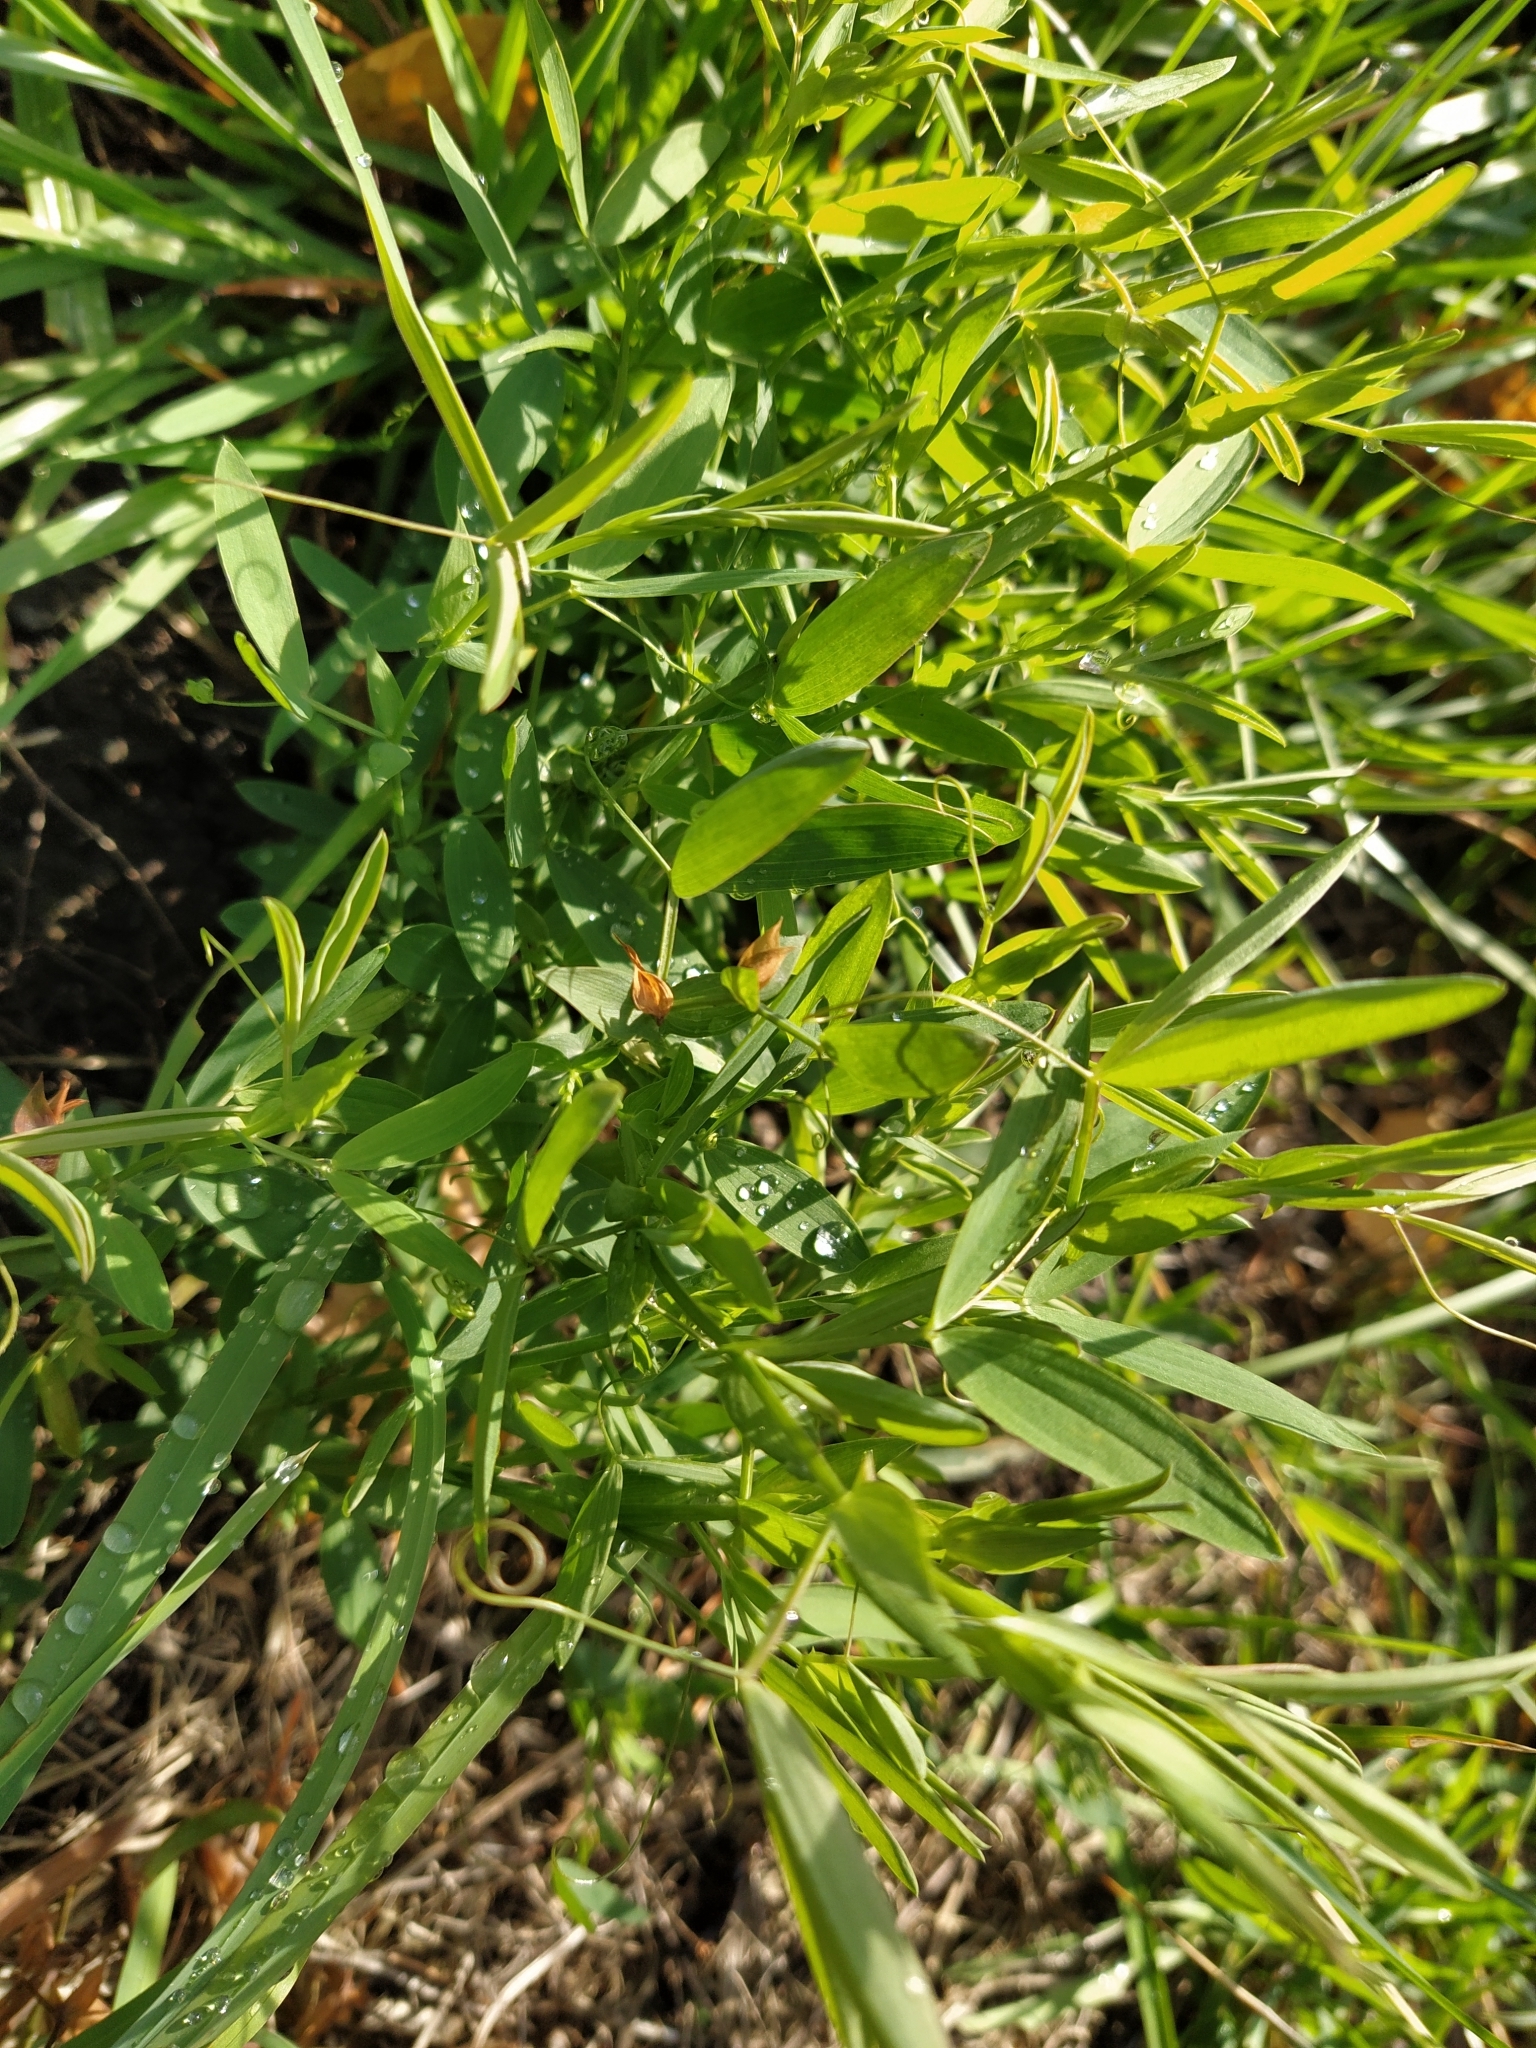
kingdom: Plantae
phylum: Tracheophyta
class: Magnoliopsida
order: Fabales
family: Fabaceae
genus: Lathyrus
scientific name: Lathyrus pratensis
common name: Meadow vetchling
